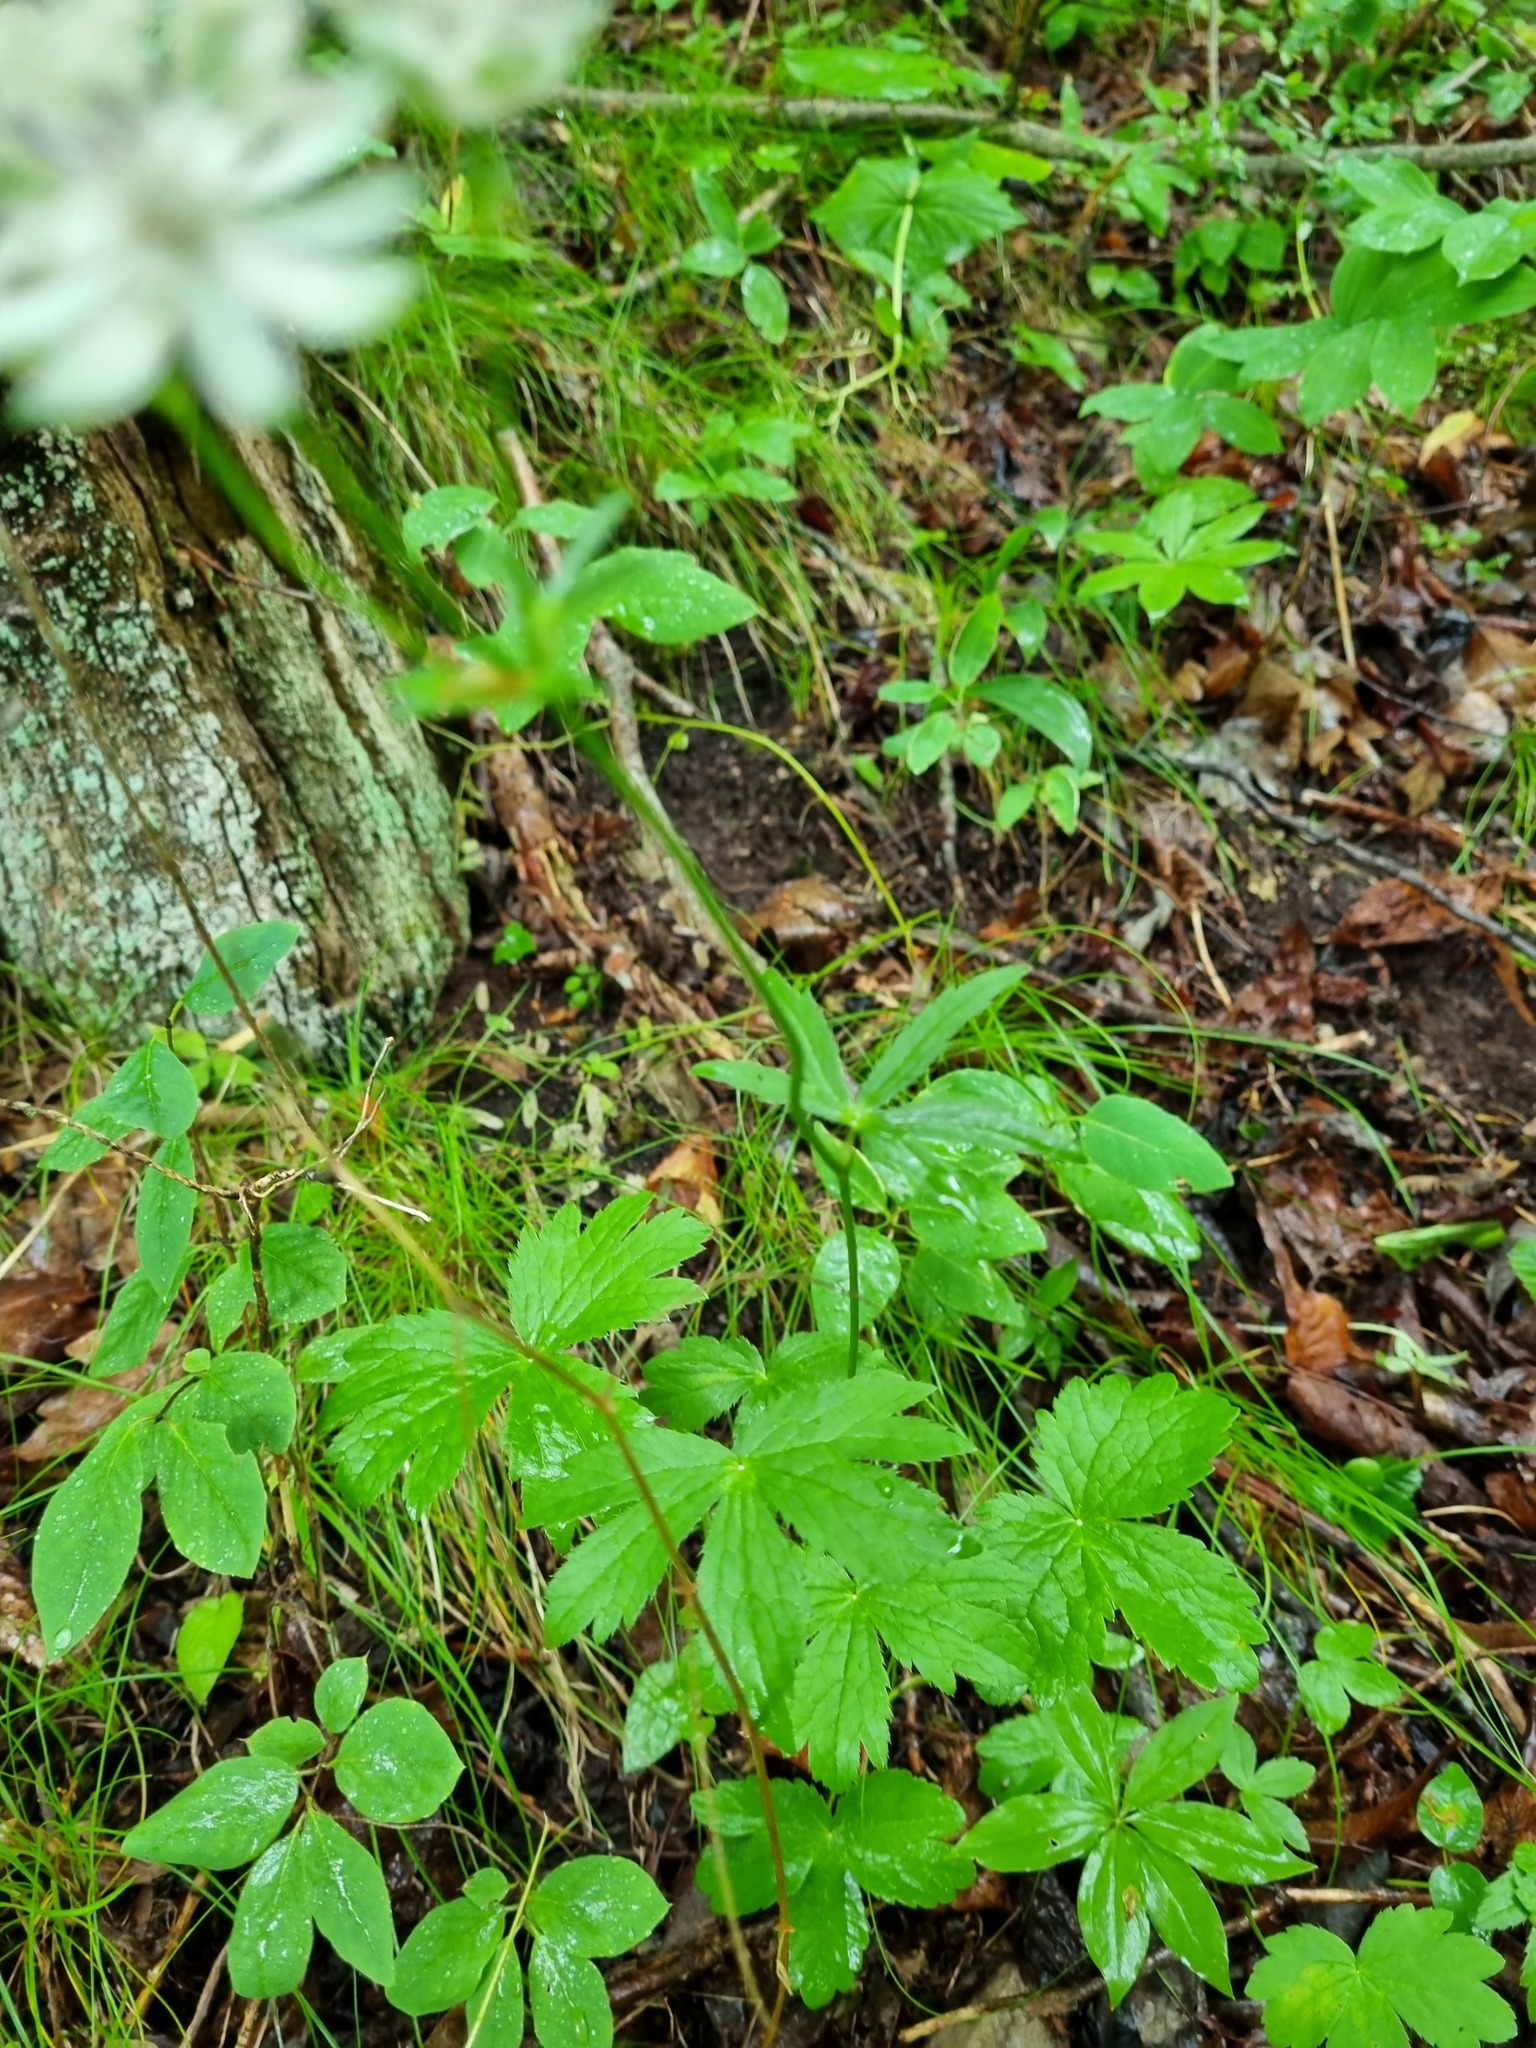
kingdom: Plantae
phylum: Tracheophyta
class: Magnoliopsida
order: Apiales
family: Apiaceae
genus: Astrantia
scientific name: Astrantia major
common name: Greater masterwort
